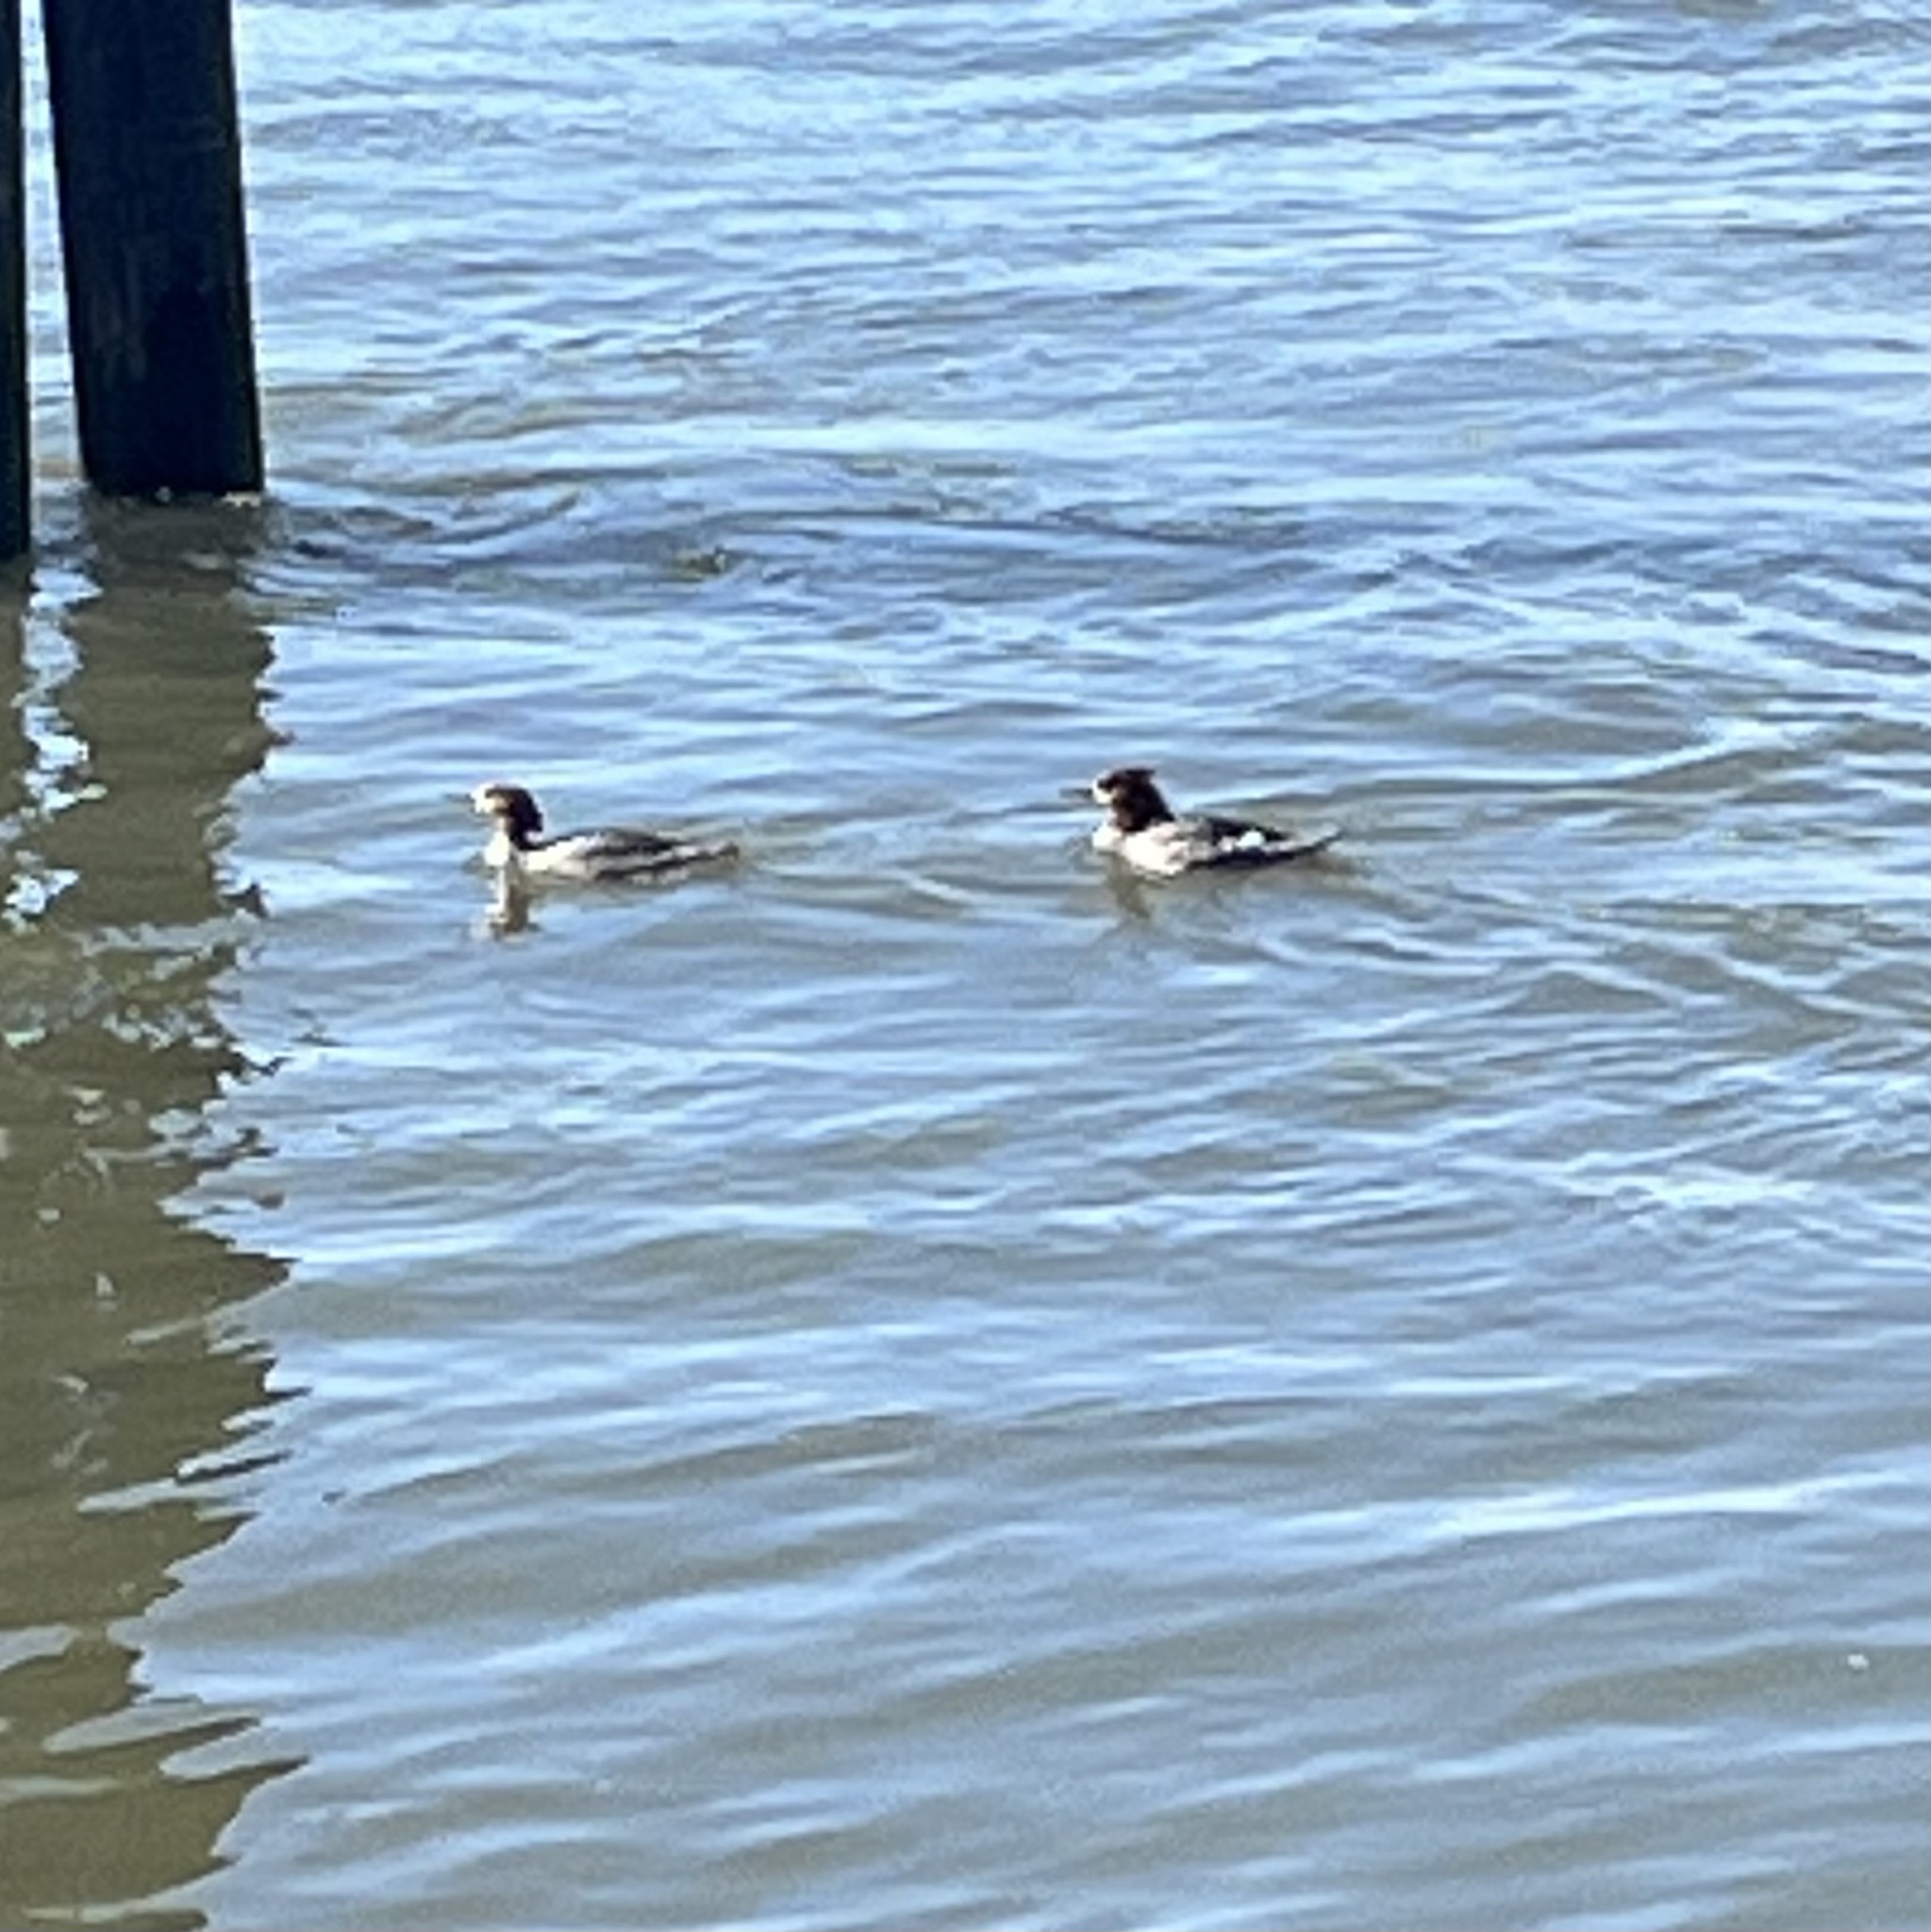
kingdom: Animalia
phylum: Chordata
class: Aves
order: Anseriformes
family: Anatidae
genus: Mergus
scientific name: Mergus merganser
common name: Common merganser
